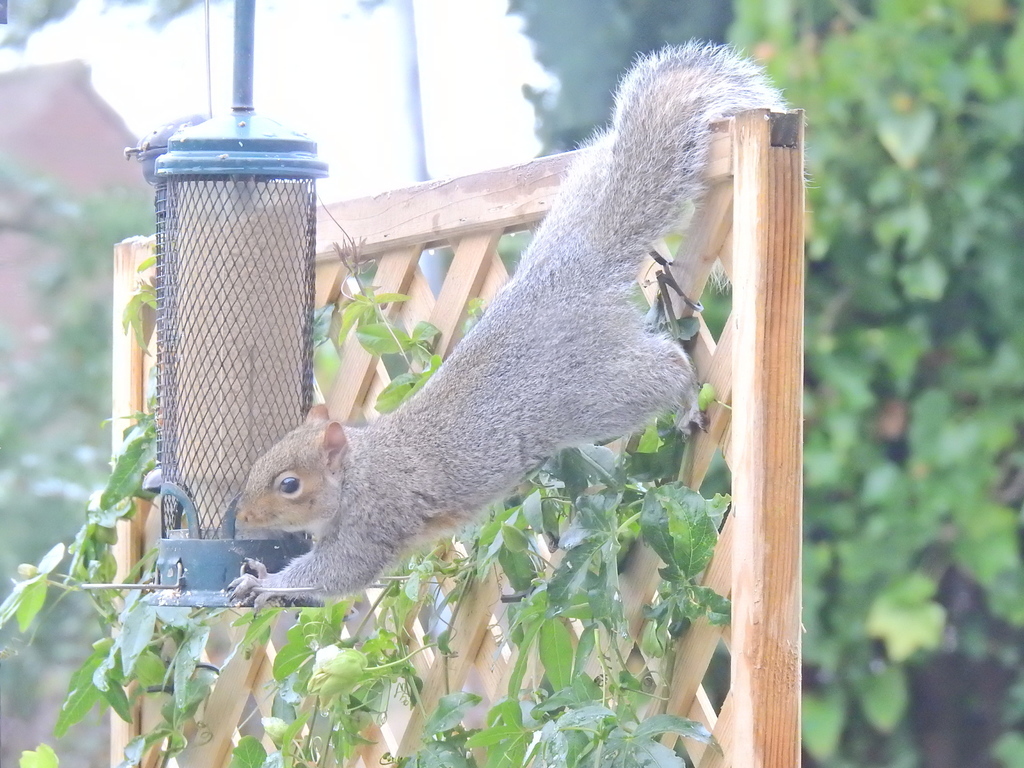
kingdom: Animalia
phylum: Chordata
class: Mammalia
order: Rodentia
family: Sciuridae
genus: Sciurus
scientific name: Sciurus carolinensis
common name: Eastern gray squirrel
